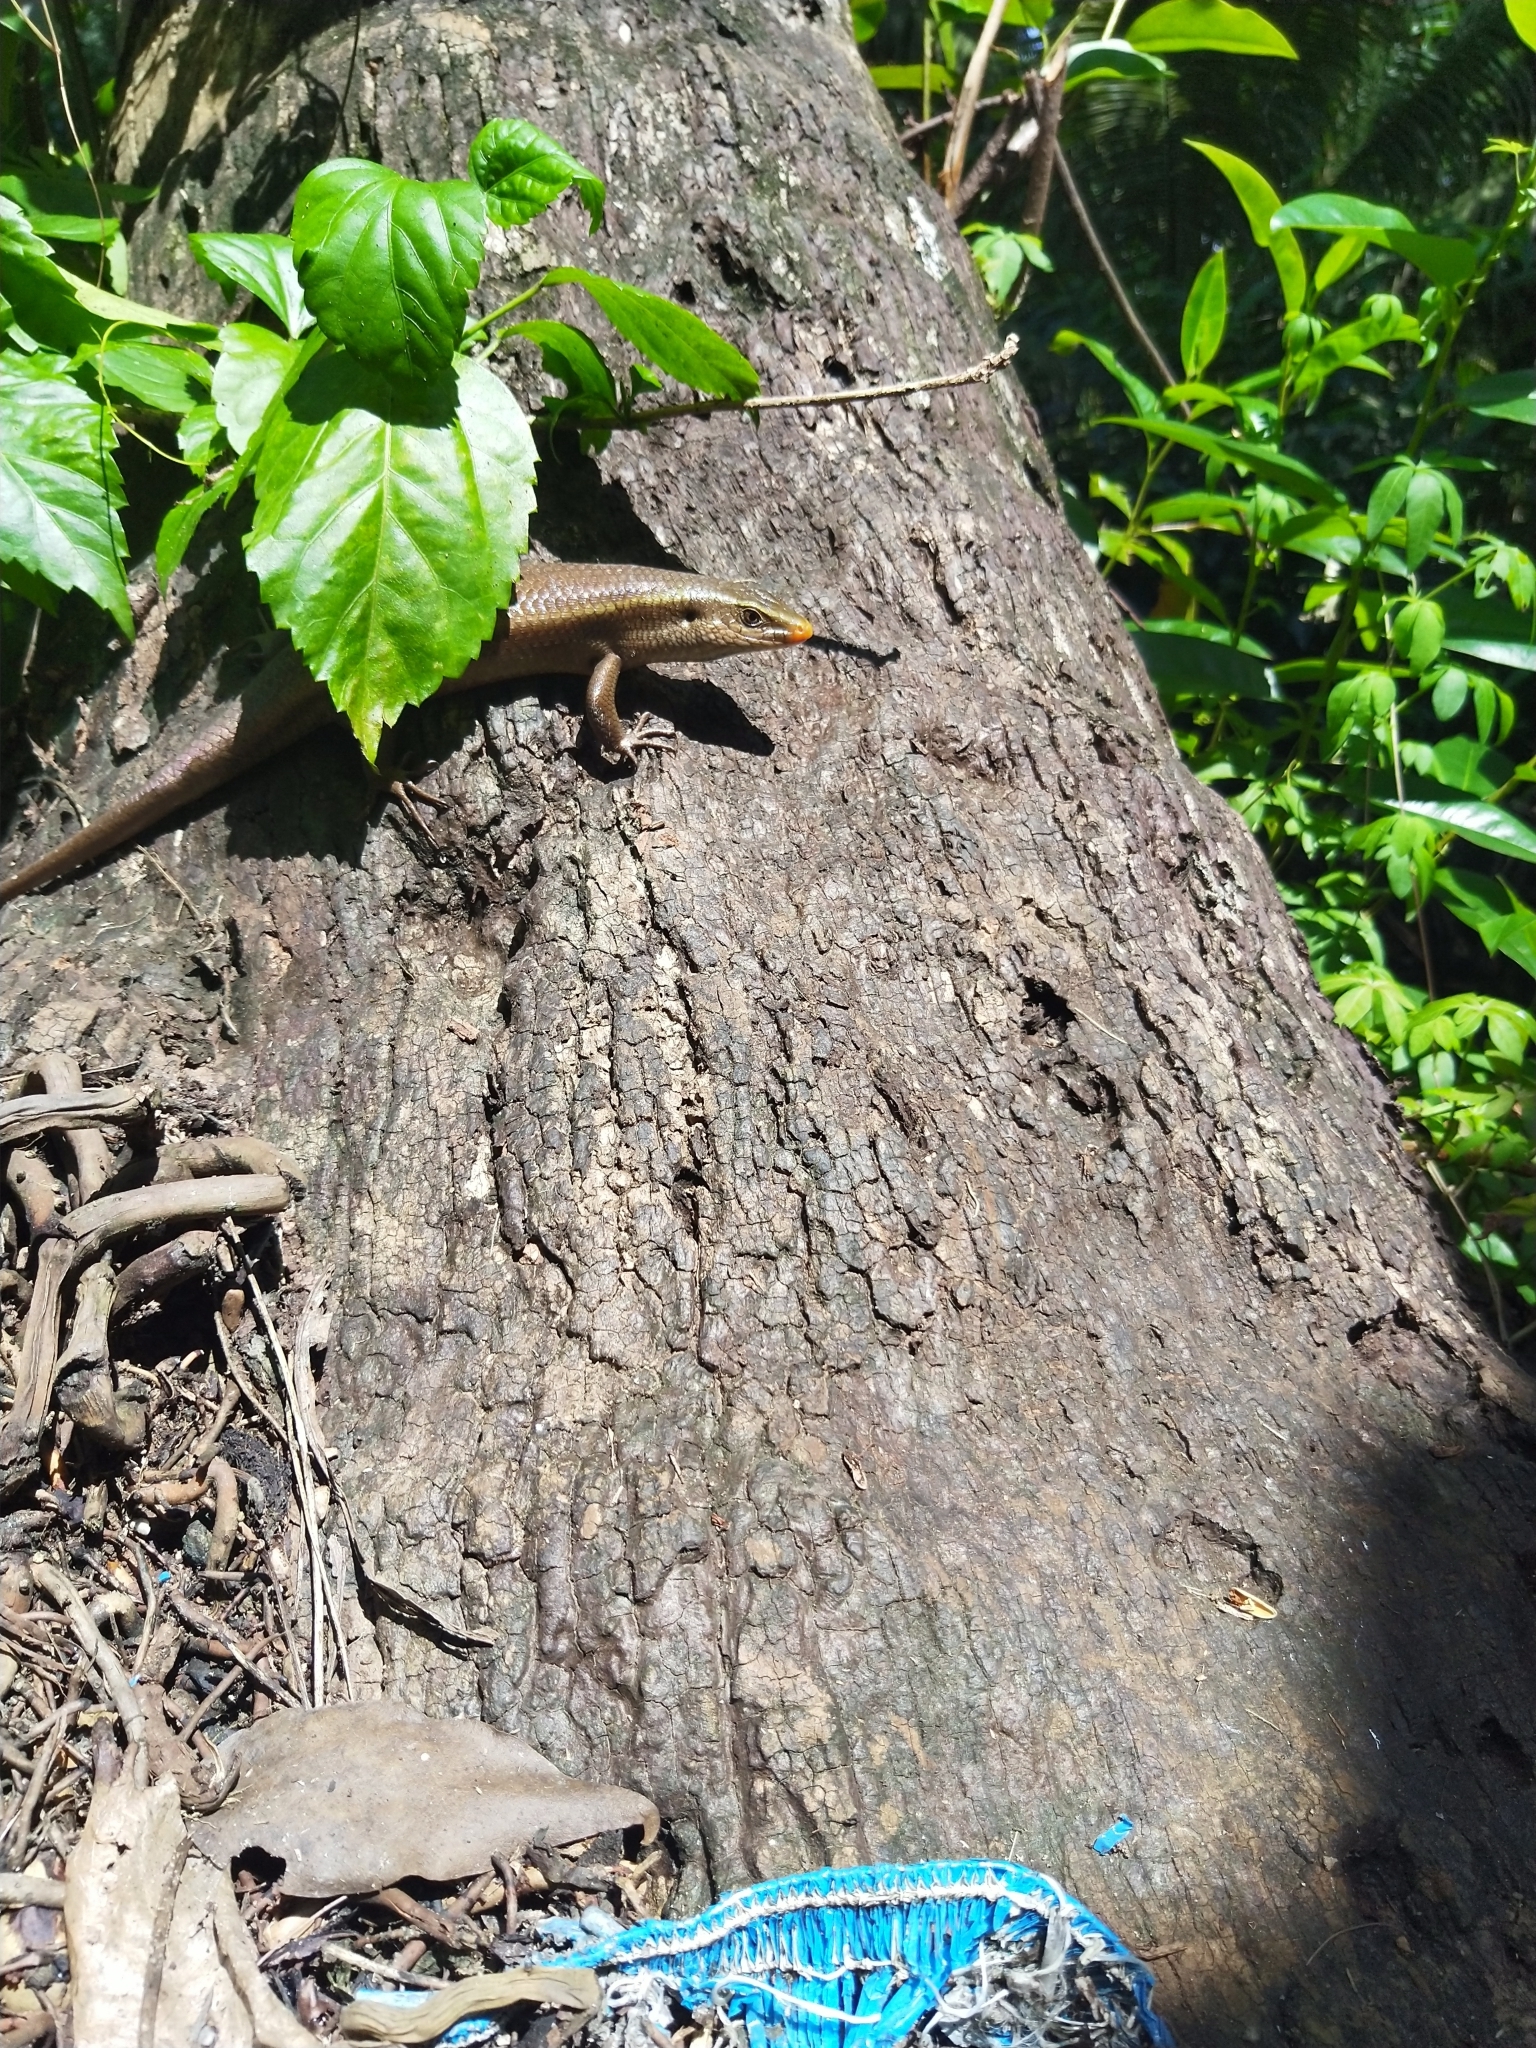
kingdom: Animalia
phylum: Chordata
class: Squamata
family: Scincidae
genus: Eutropis
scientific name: Eutropis carinata
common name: Keeled indian mabuya
